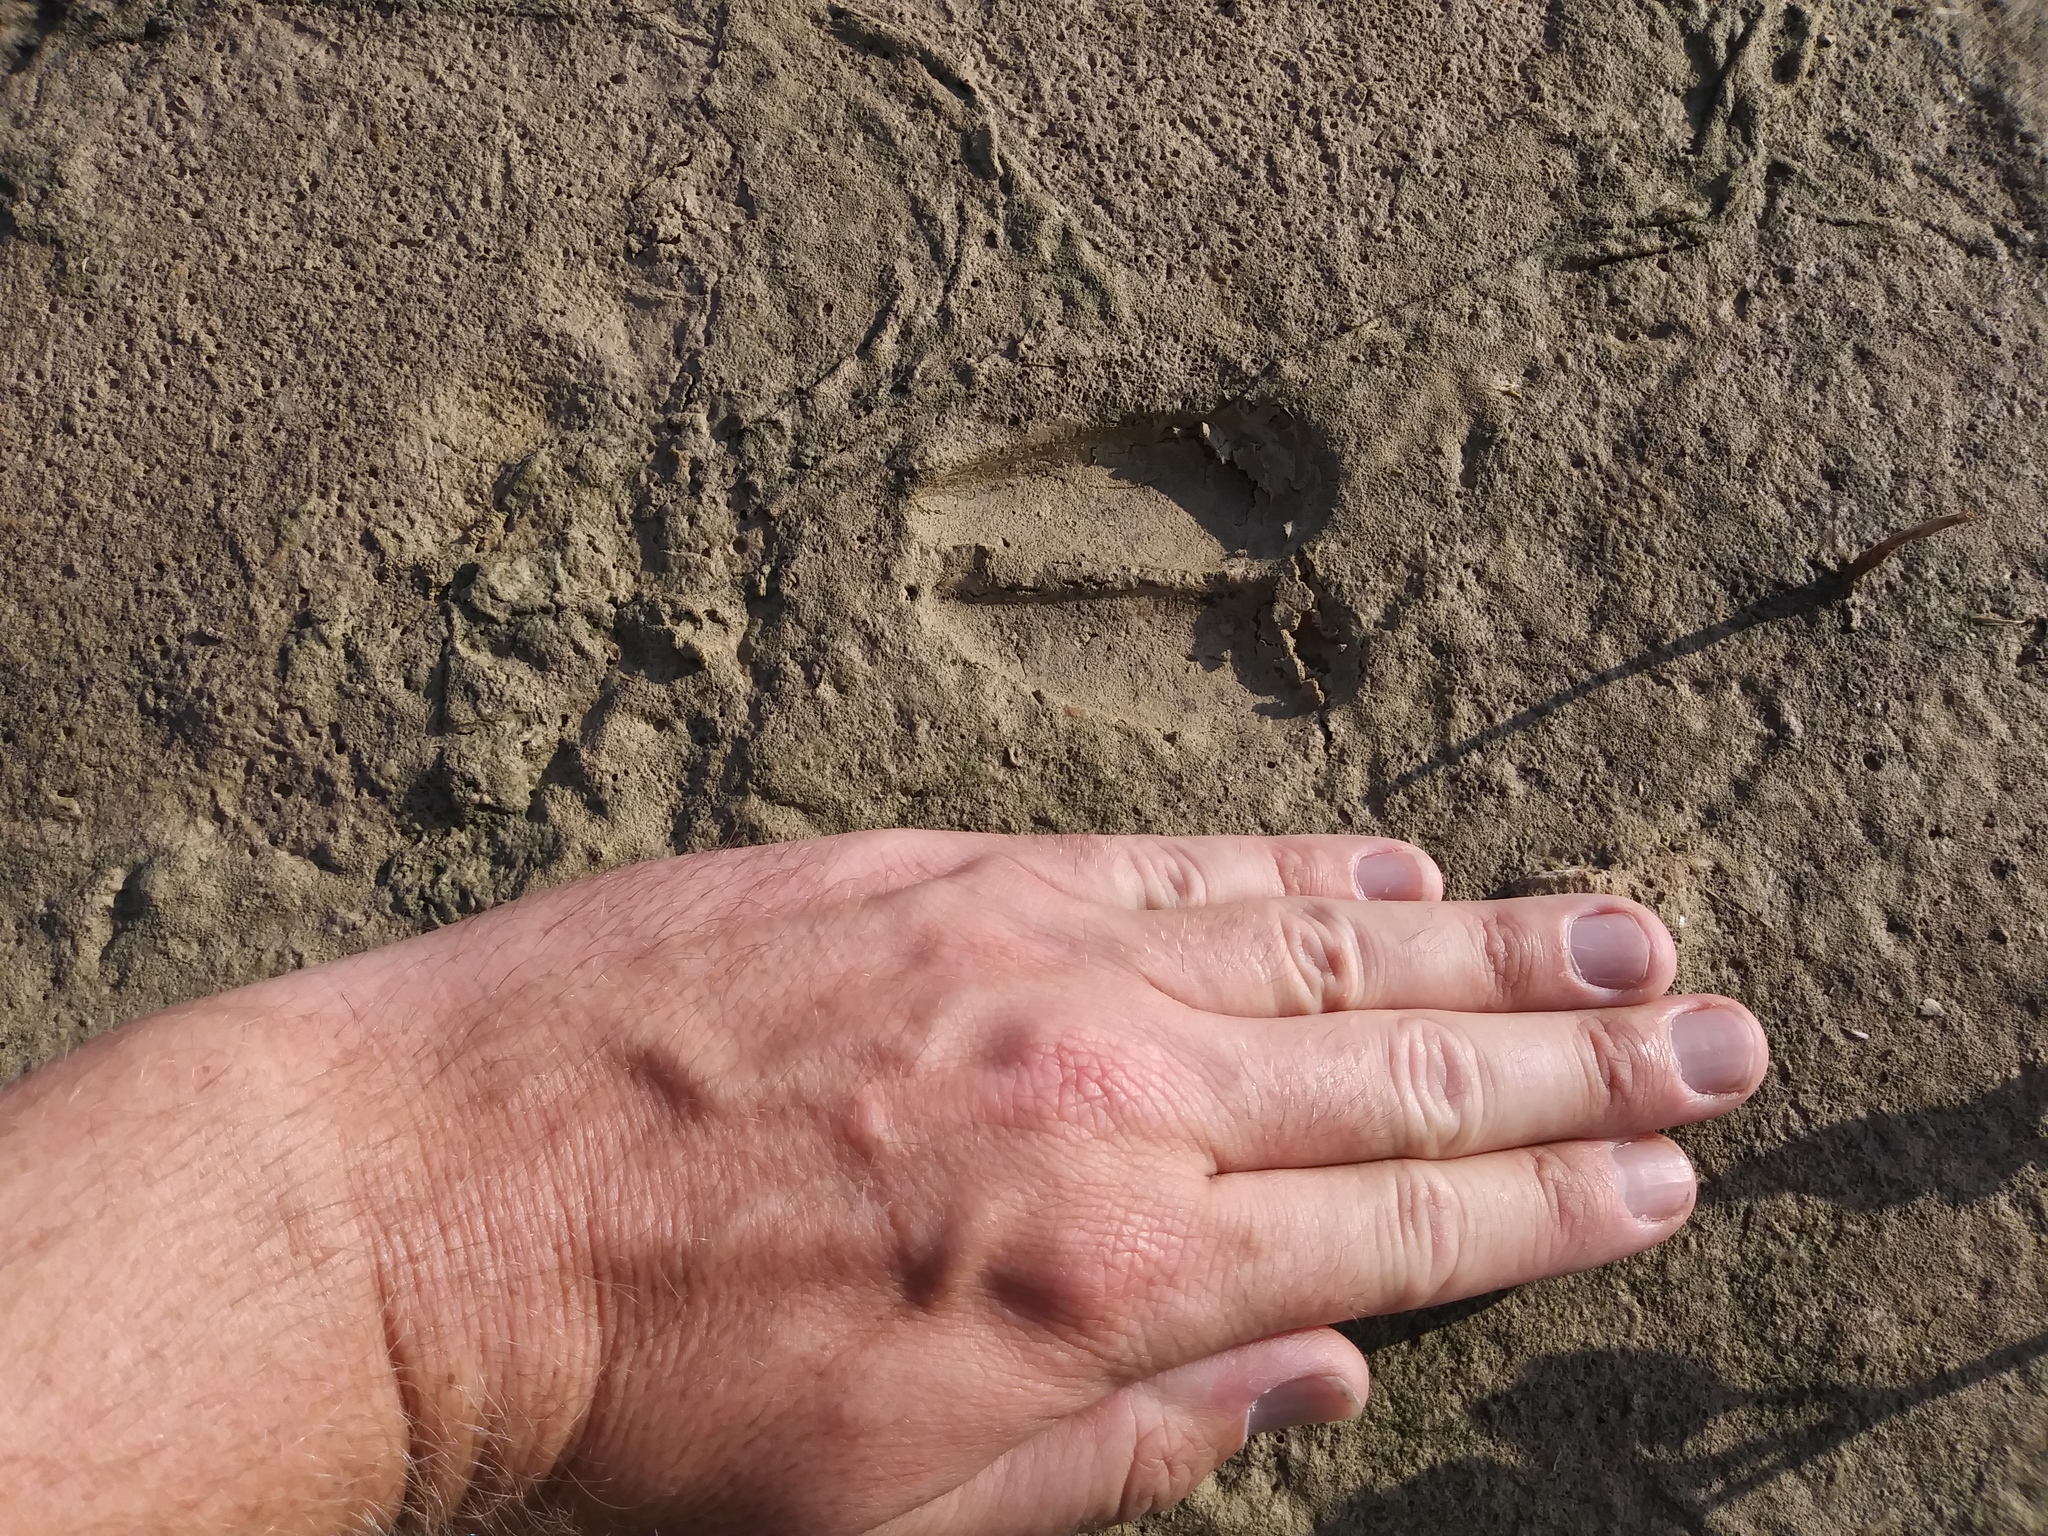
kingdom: Animalia
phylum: Chordata
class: Mammalia
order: Artiodactyla
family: Cervidae
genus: Odocoileus
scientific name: Odocoileus hemionus
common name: Mule deer
